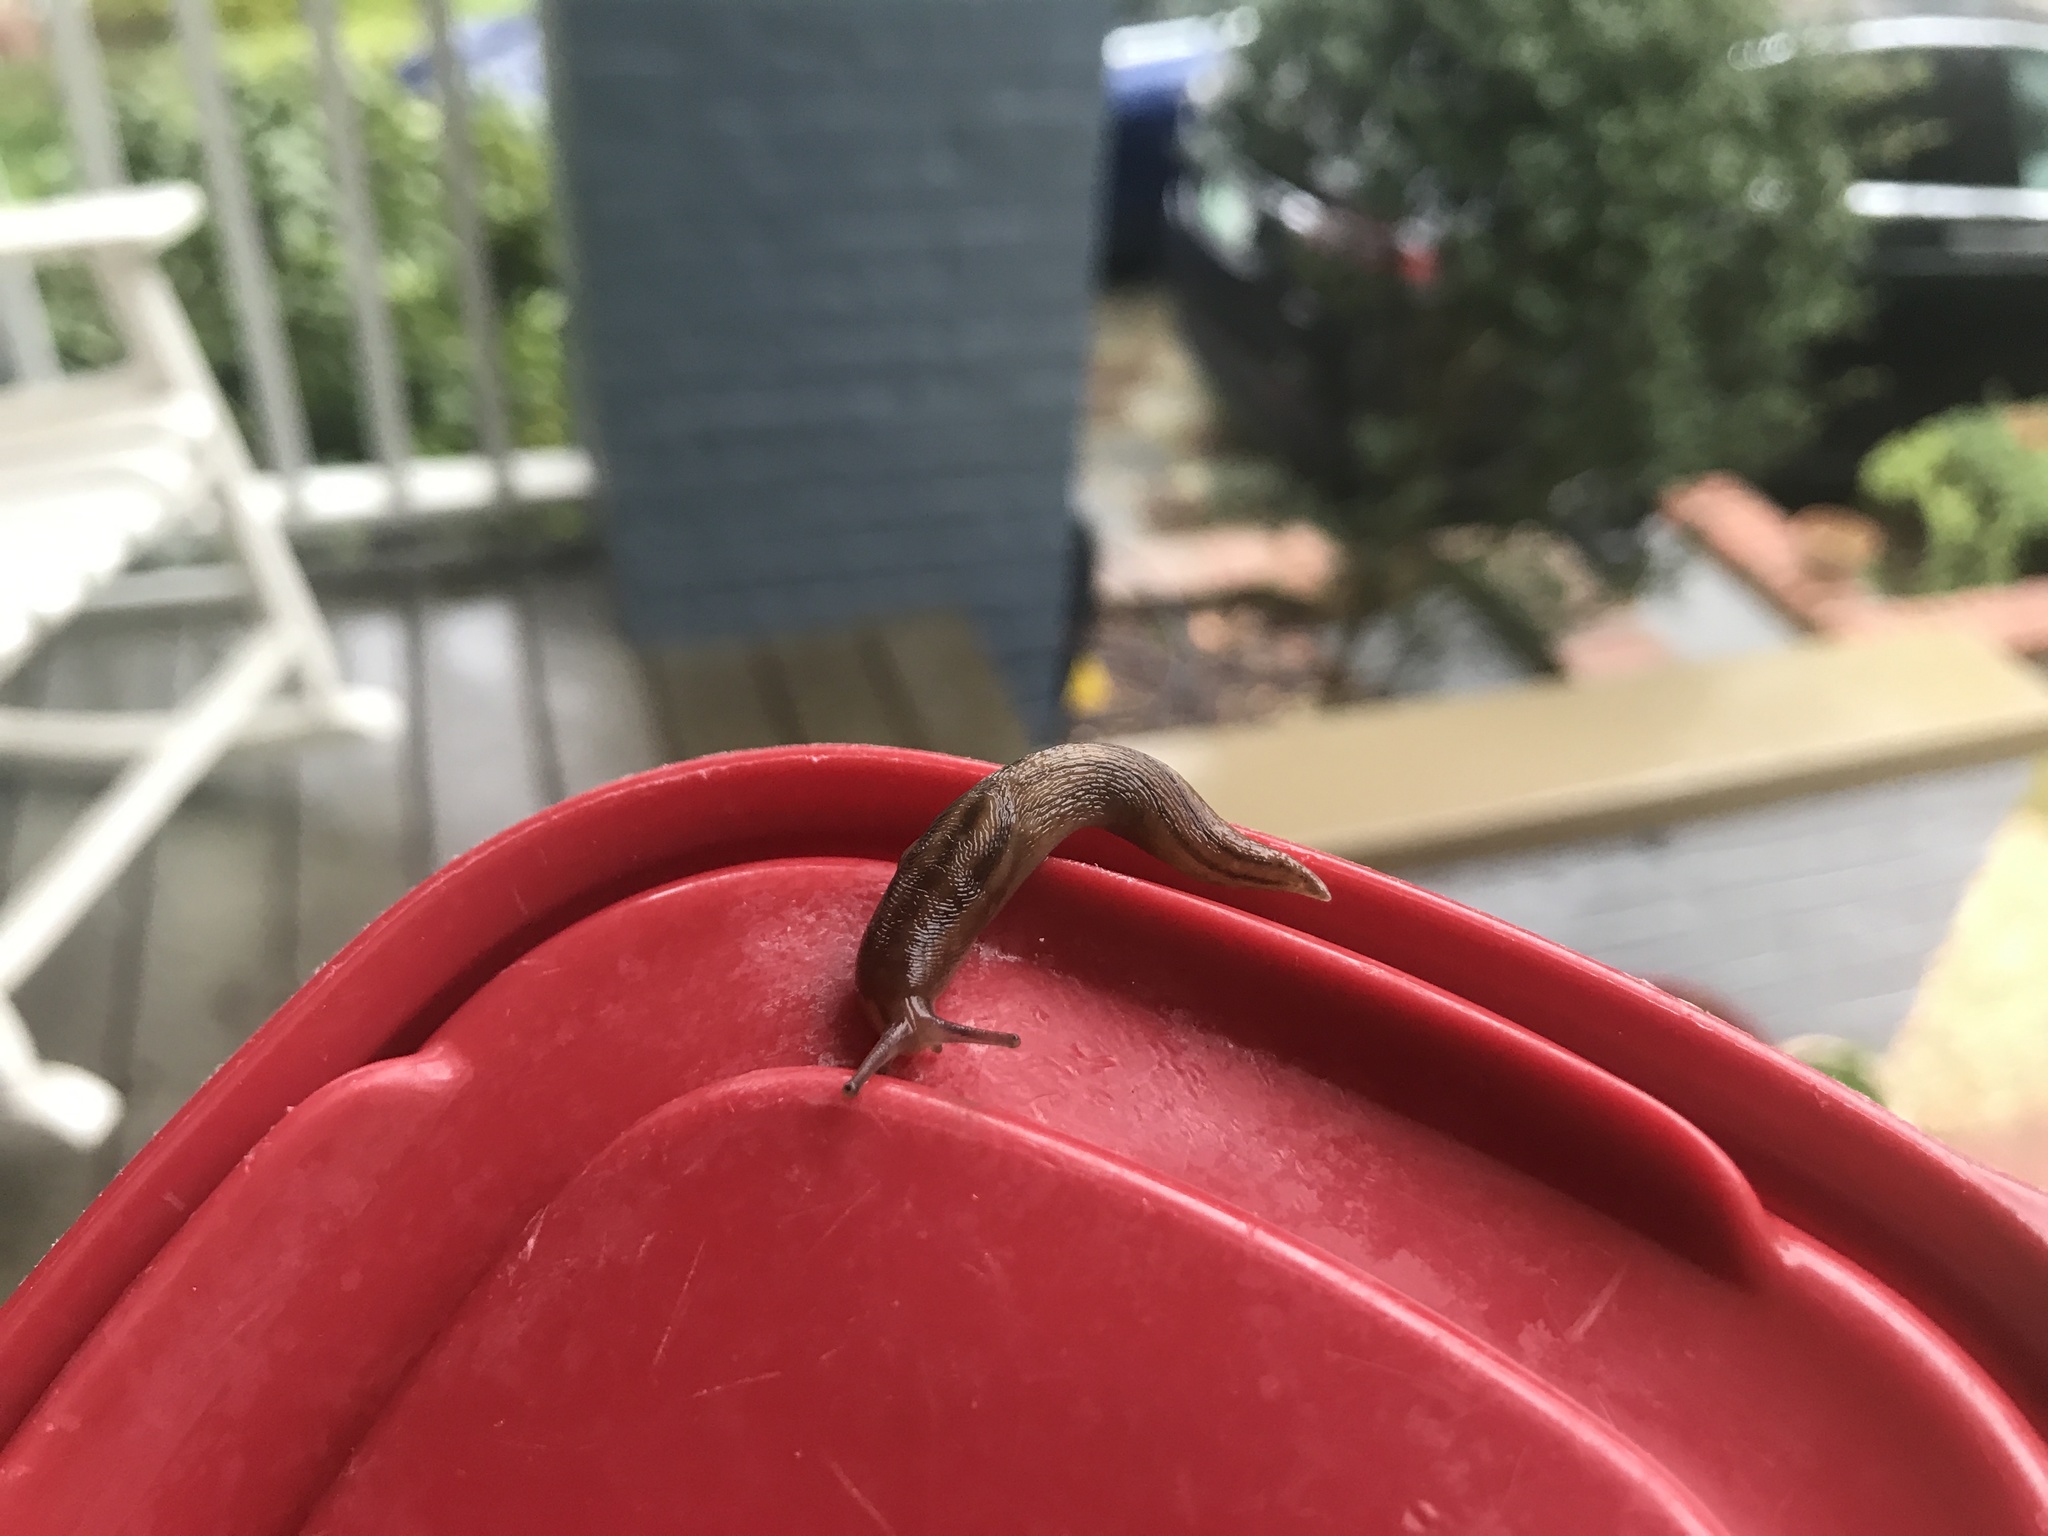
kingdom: Animalia
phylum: Mollusca
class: Gastropoda
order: Stylommatophora
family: Limacidae
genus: Ambigolimax
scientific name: Ambigolimax
